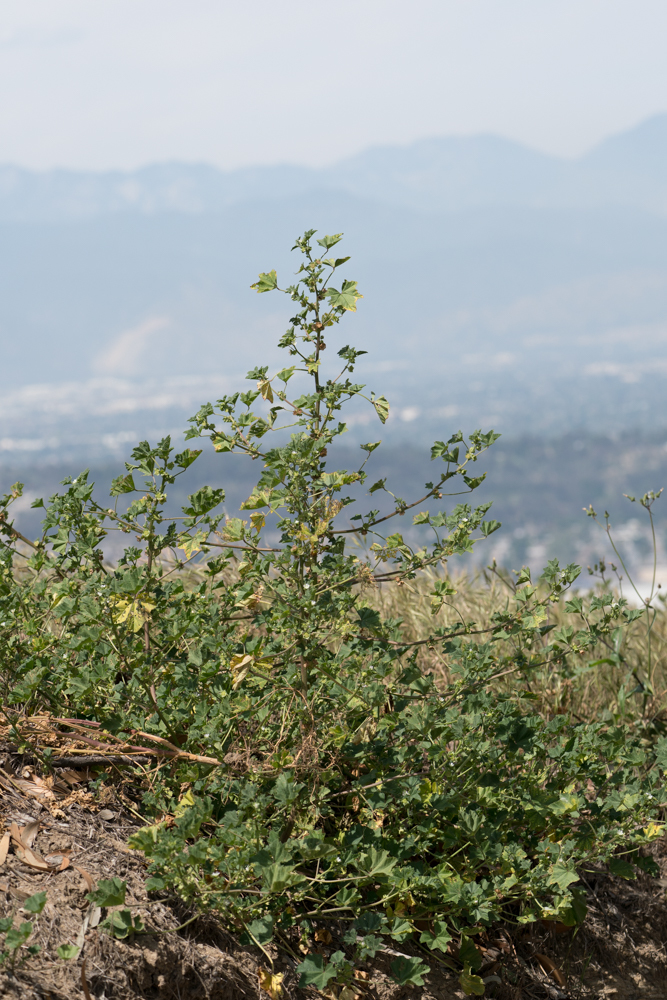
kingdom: Plantae
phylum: Tracheophyta
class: Magnoliopsida
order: Malvales
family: Malvaceae
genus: Malva
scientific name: Malva parviflora
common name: Least mallow
